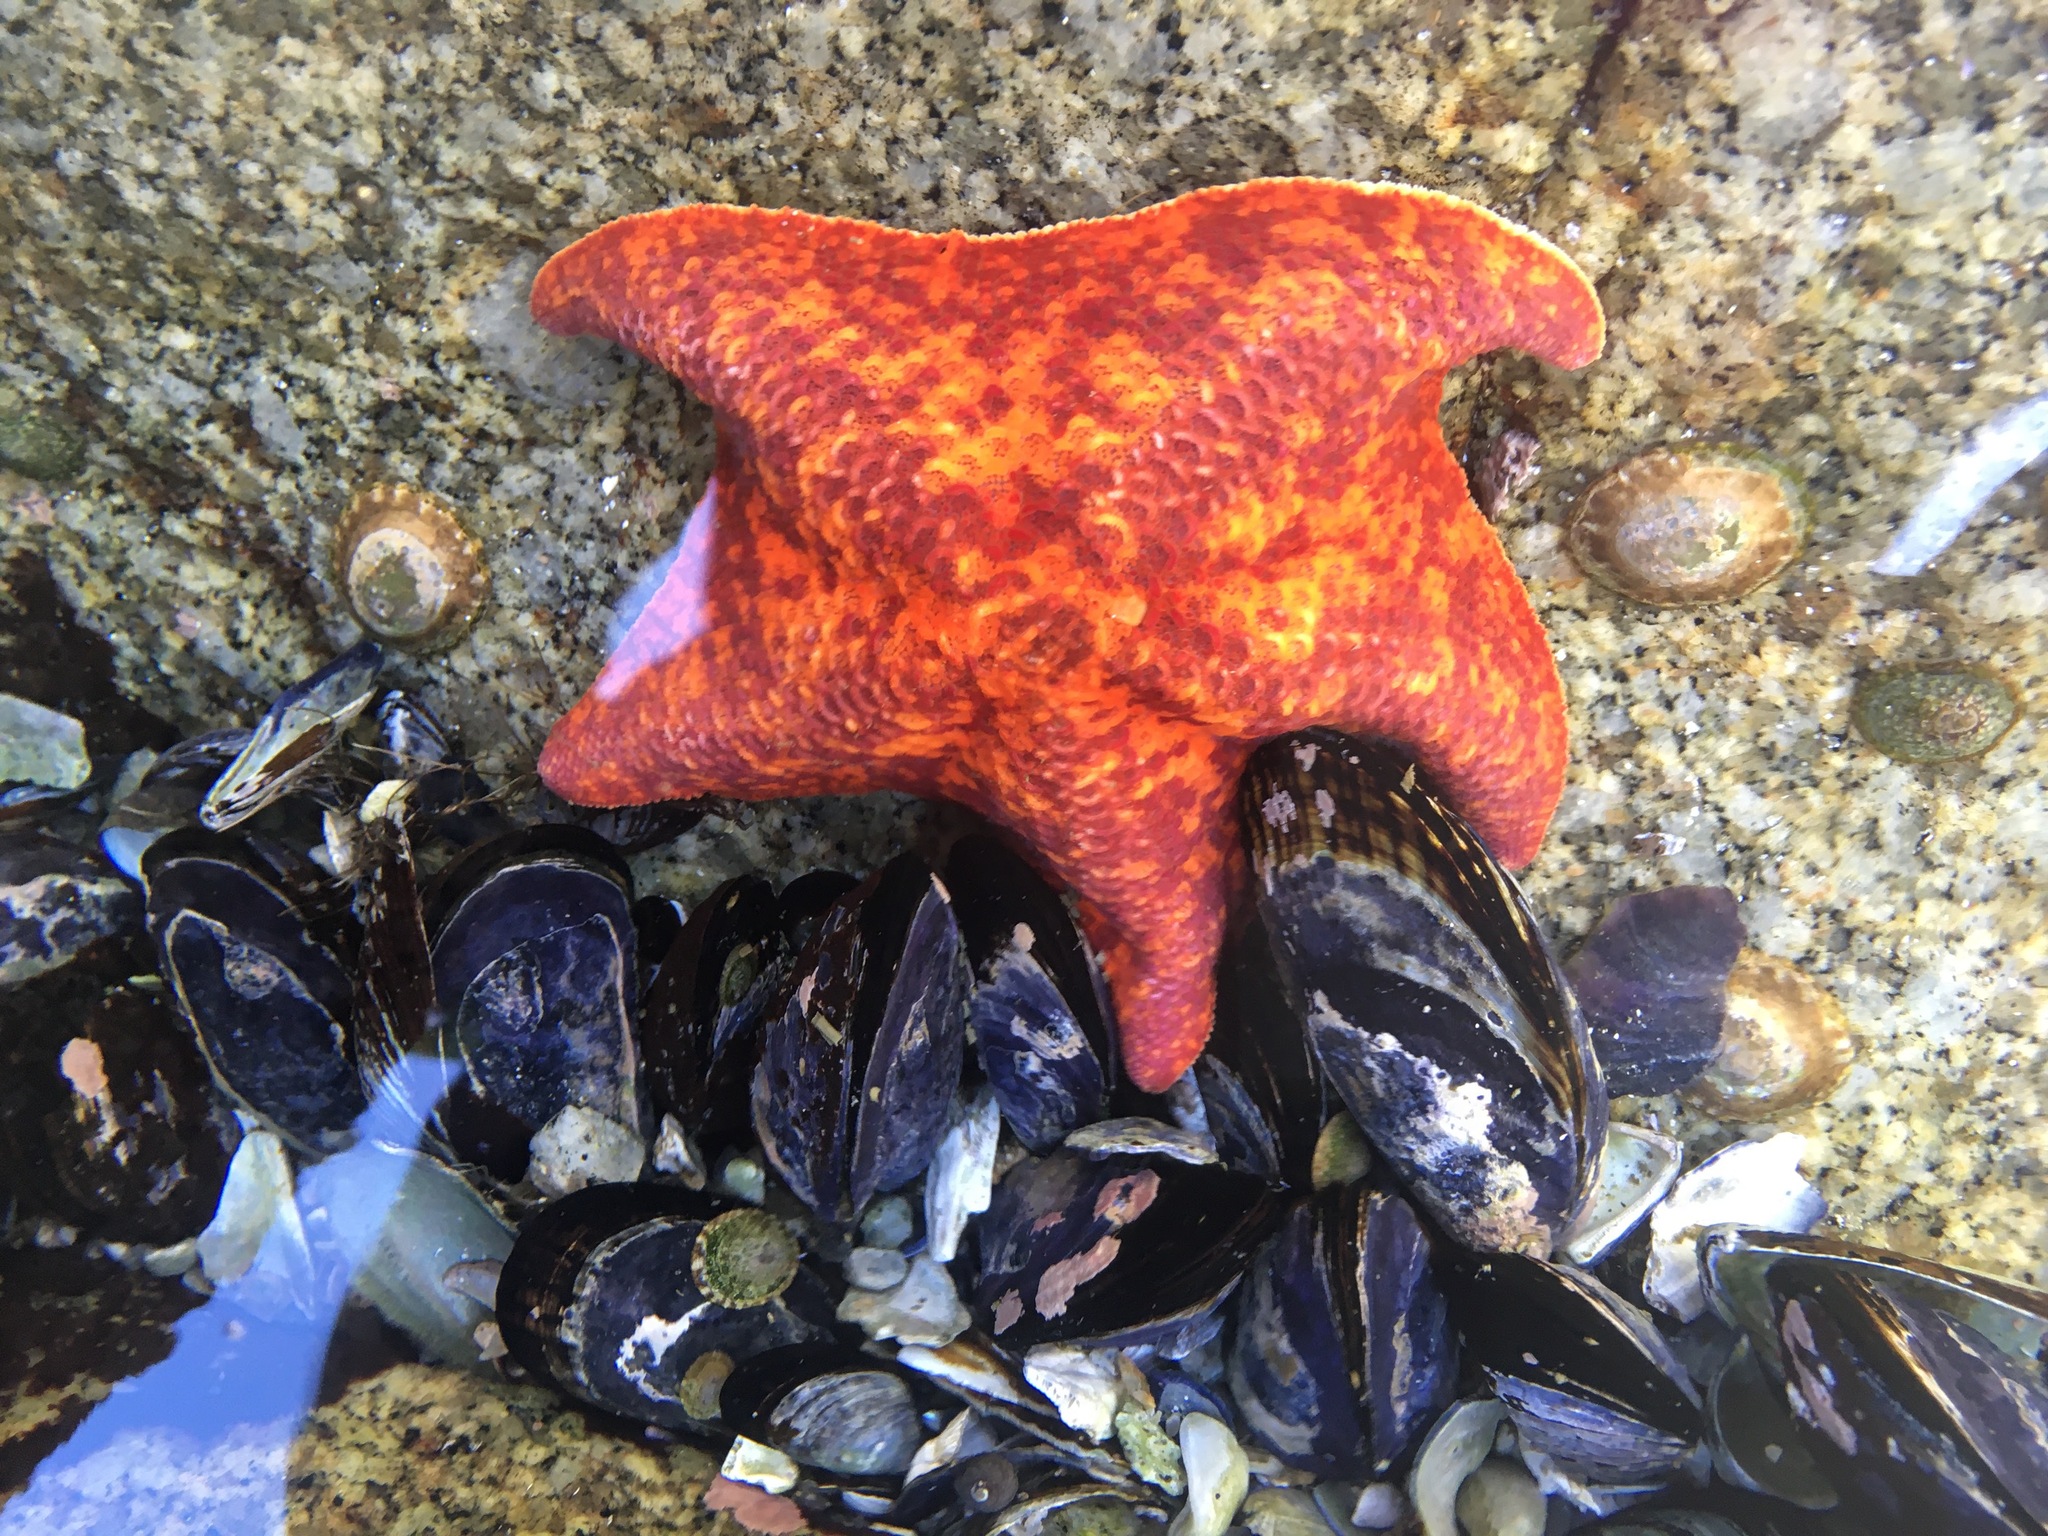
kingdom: Animalia
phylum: Echinodermata
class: Asteroidea
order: Valvatida
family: Asterinidae
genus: Patiria
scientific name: Patiria miniata
